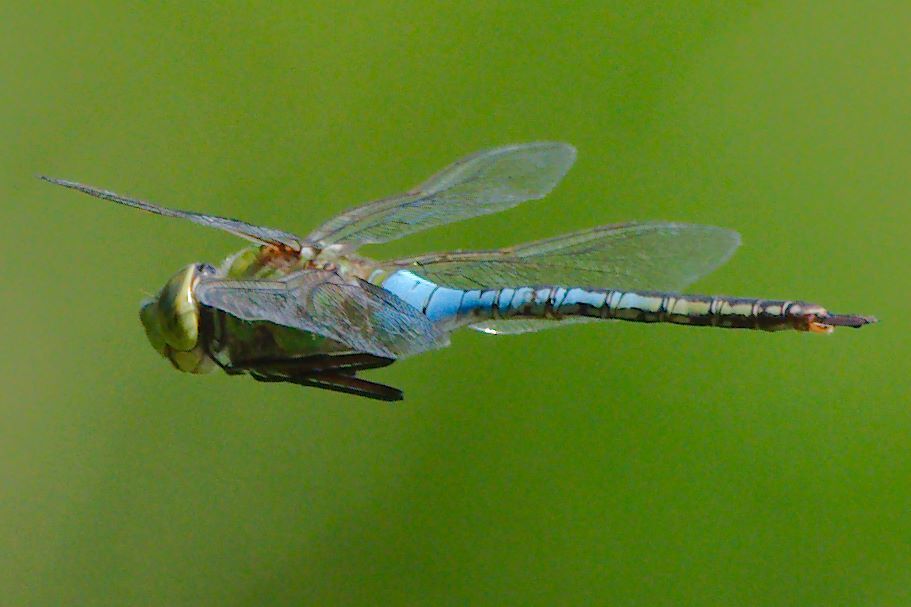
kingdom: Animalia
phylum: Arthropoda
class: Insecta
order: Odonata
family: Aeshnidae
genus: Anax
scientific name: Anax junius
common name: Common green darner
